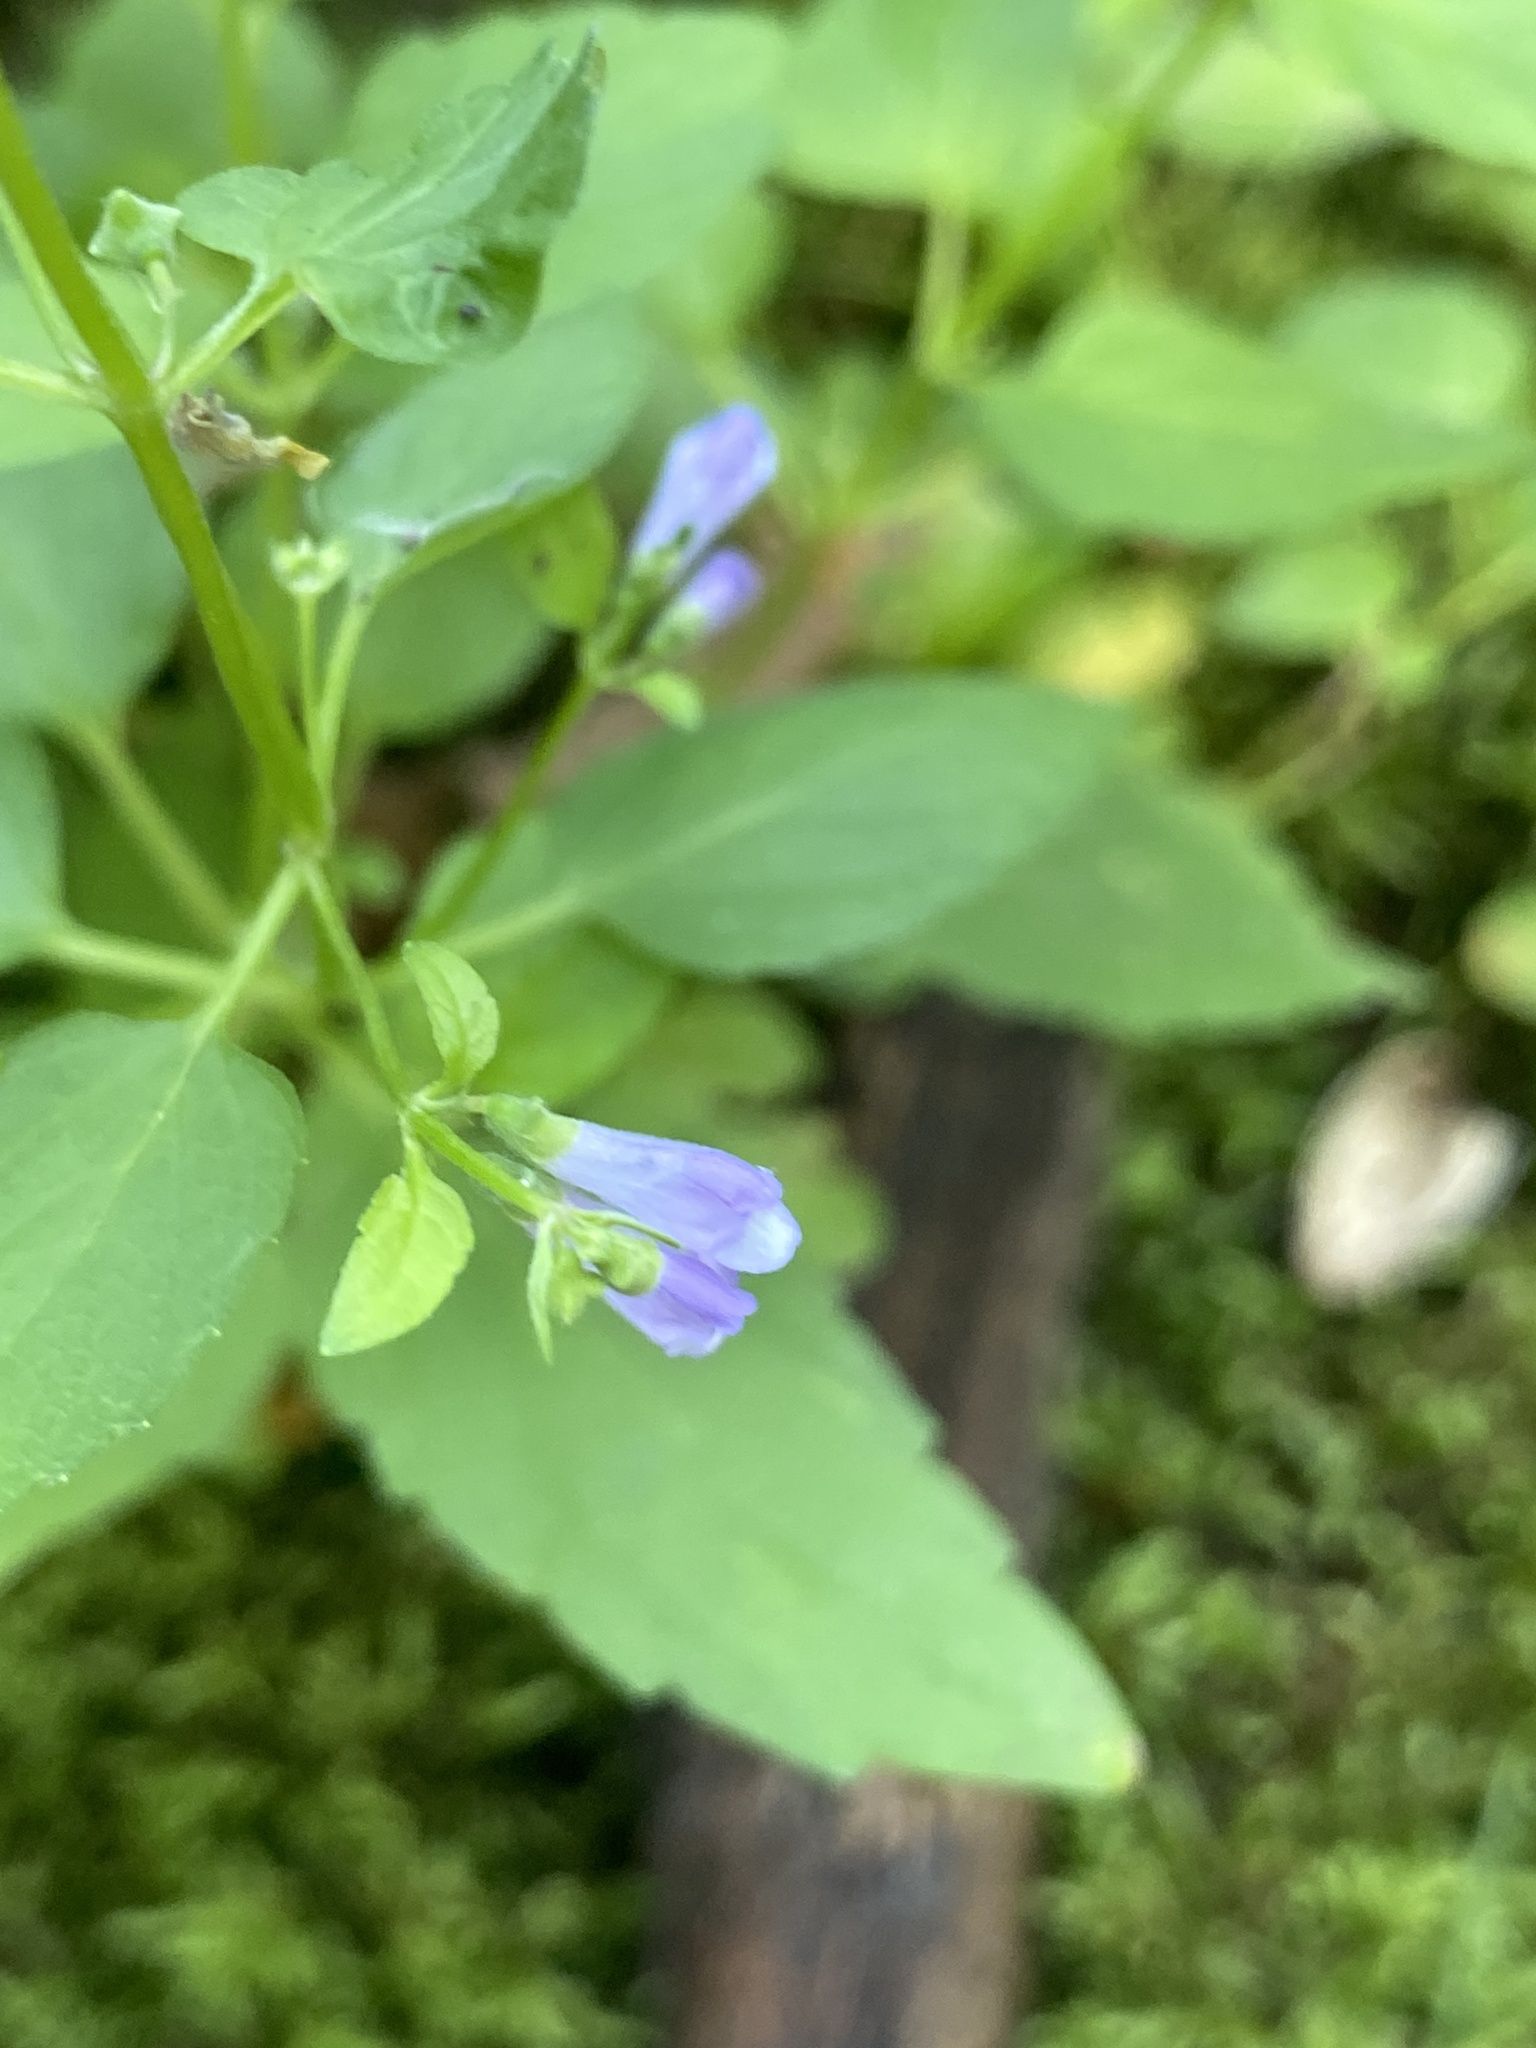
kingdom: Plantae
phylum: Tracheophyta
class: Magnoliopsida
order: Lamiales
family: Lamiaceae
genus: Scutellaria
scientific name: Scutellaria lateriflora
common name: Blue skullcap
